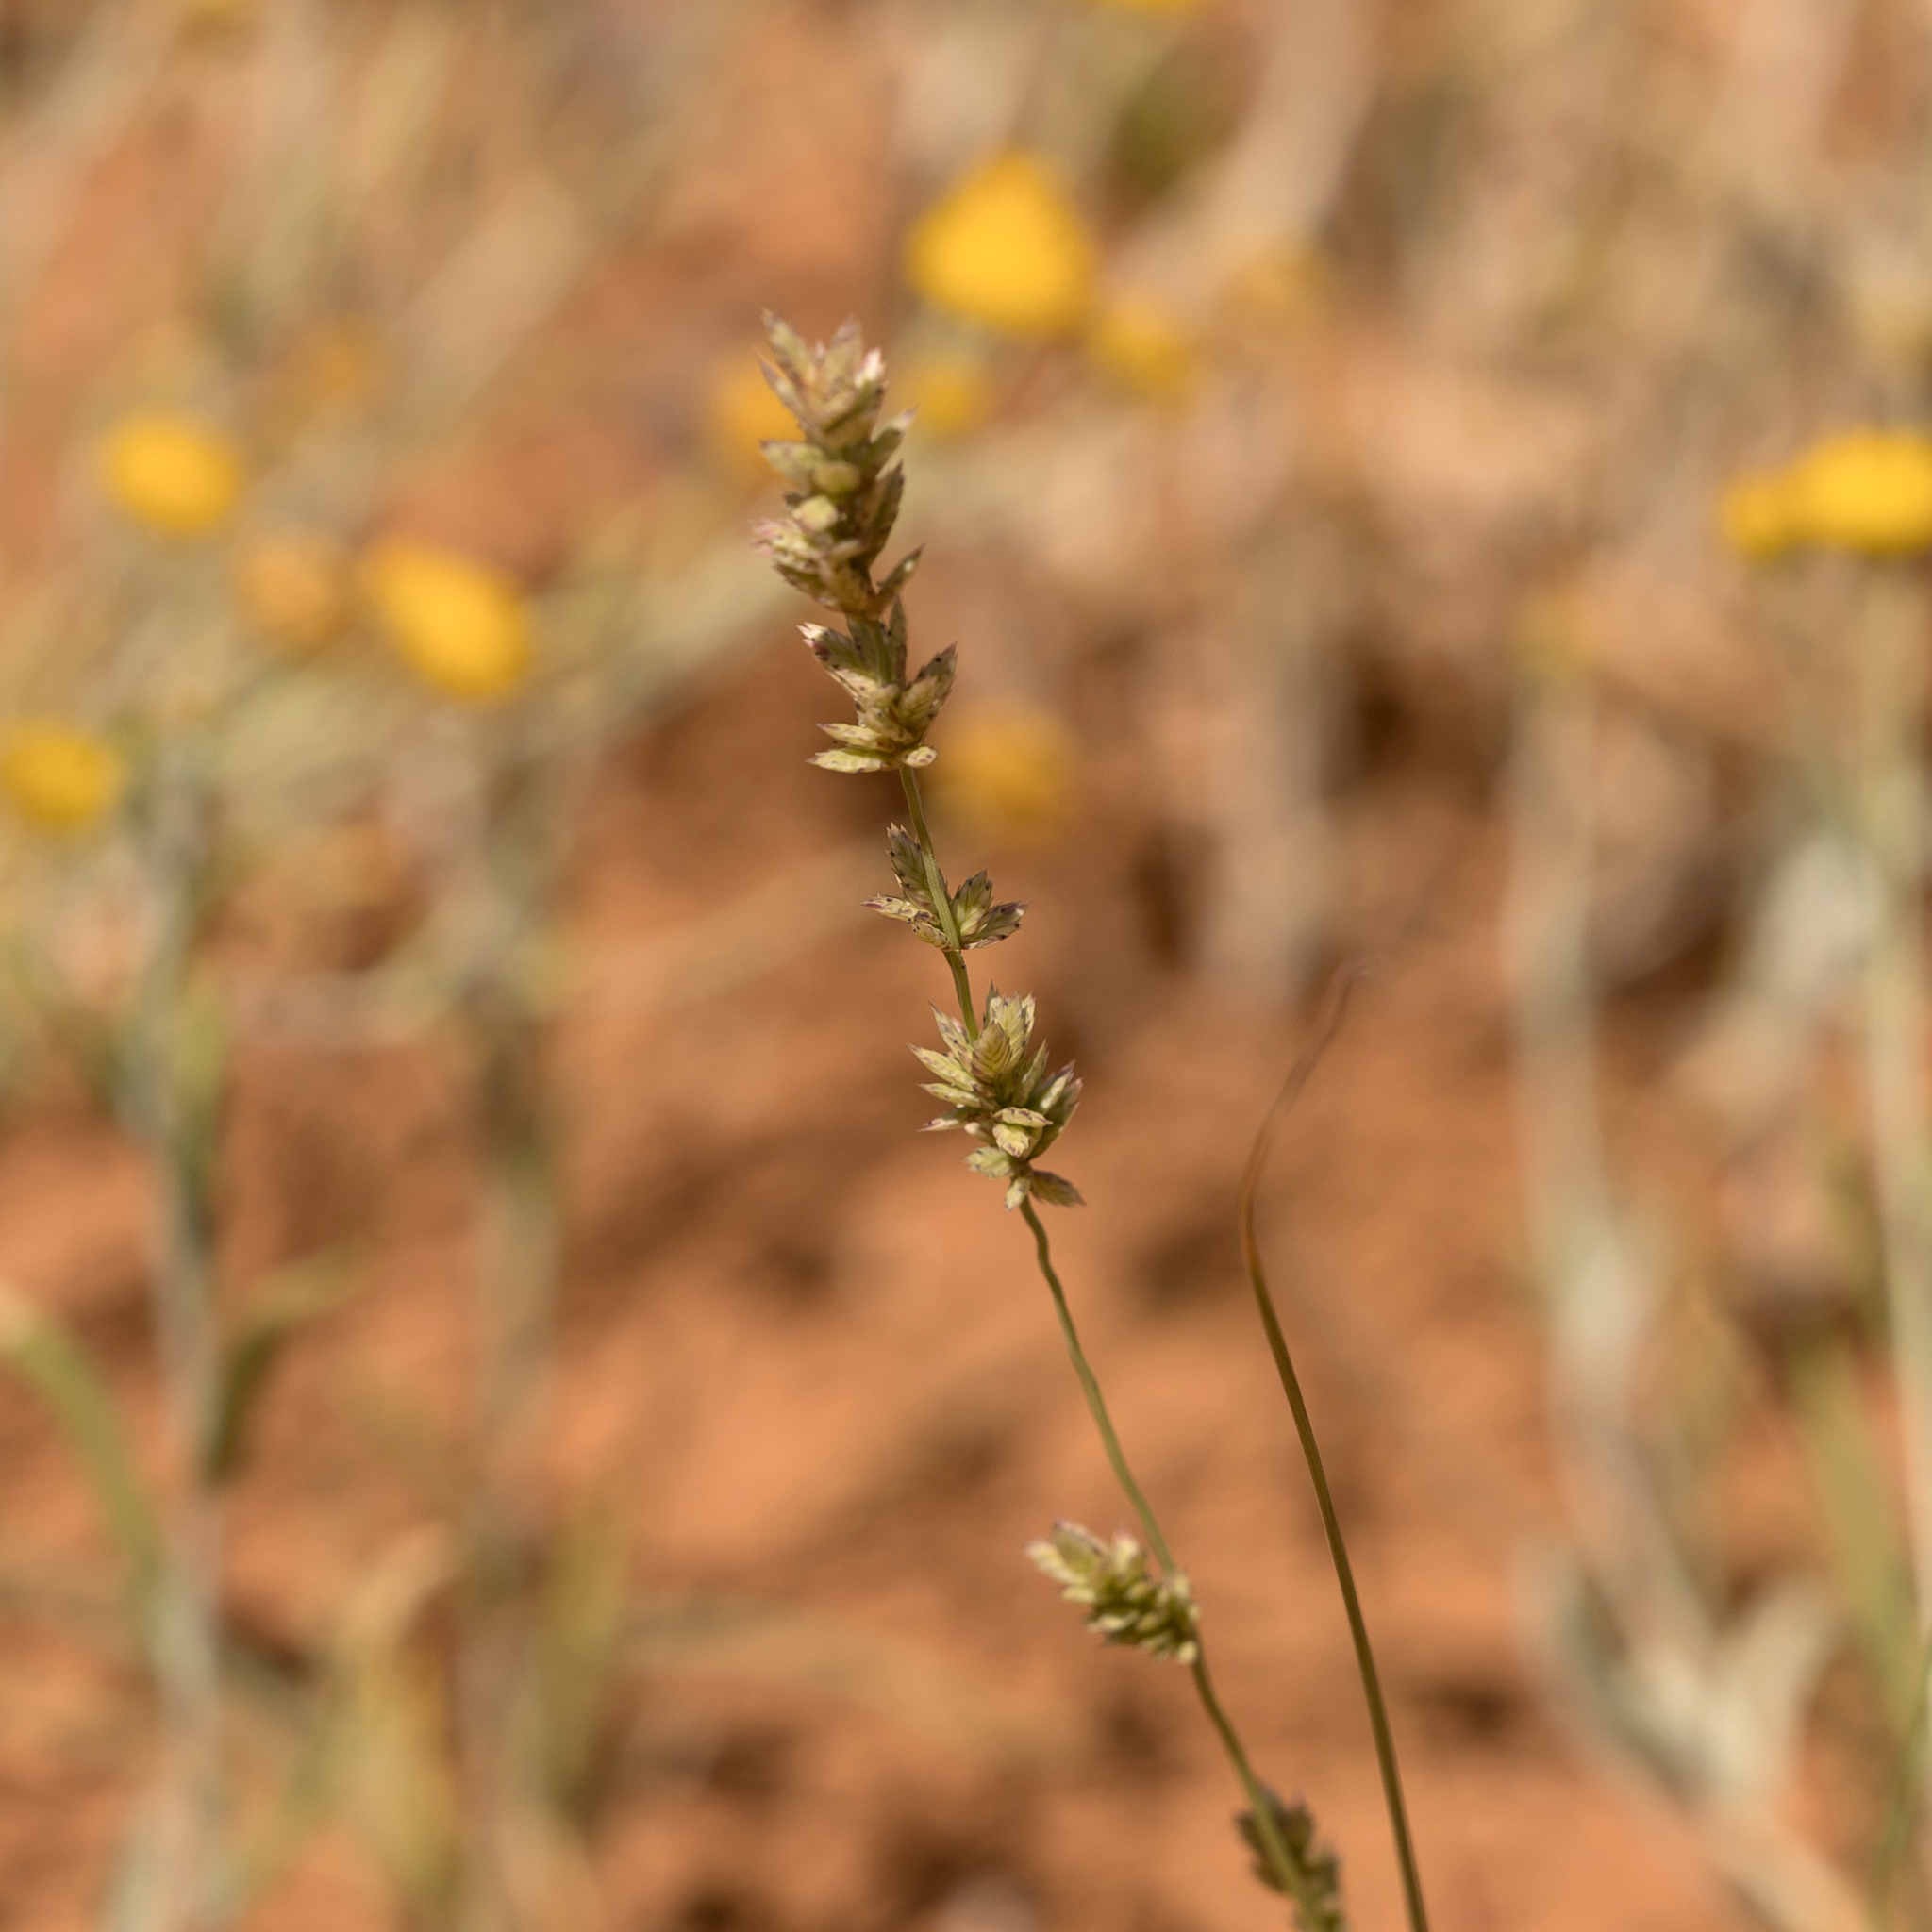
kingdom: Plantae
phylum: Tracheophyta
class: Liliopsida
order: Poales
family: Poaceae
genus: Eragrostis
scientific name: Eragrostis elongata
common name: Long lovegrass
